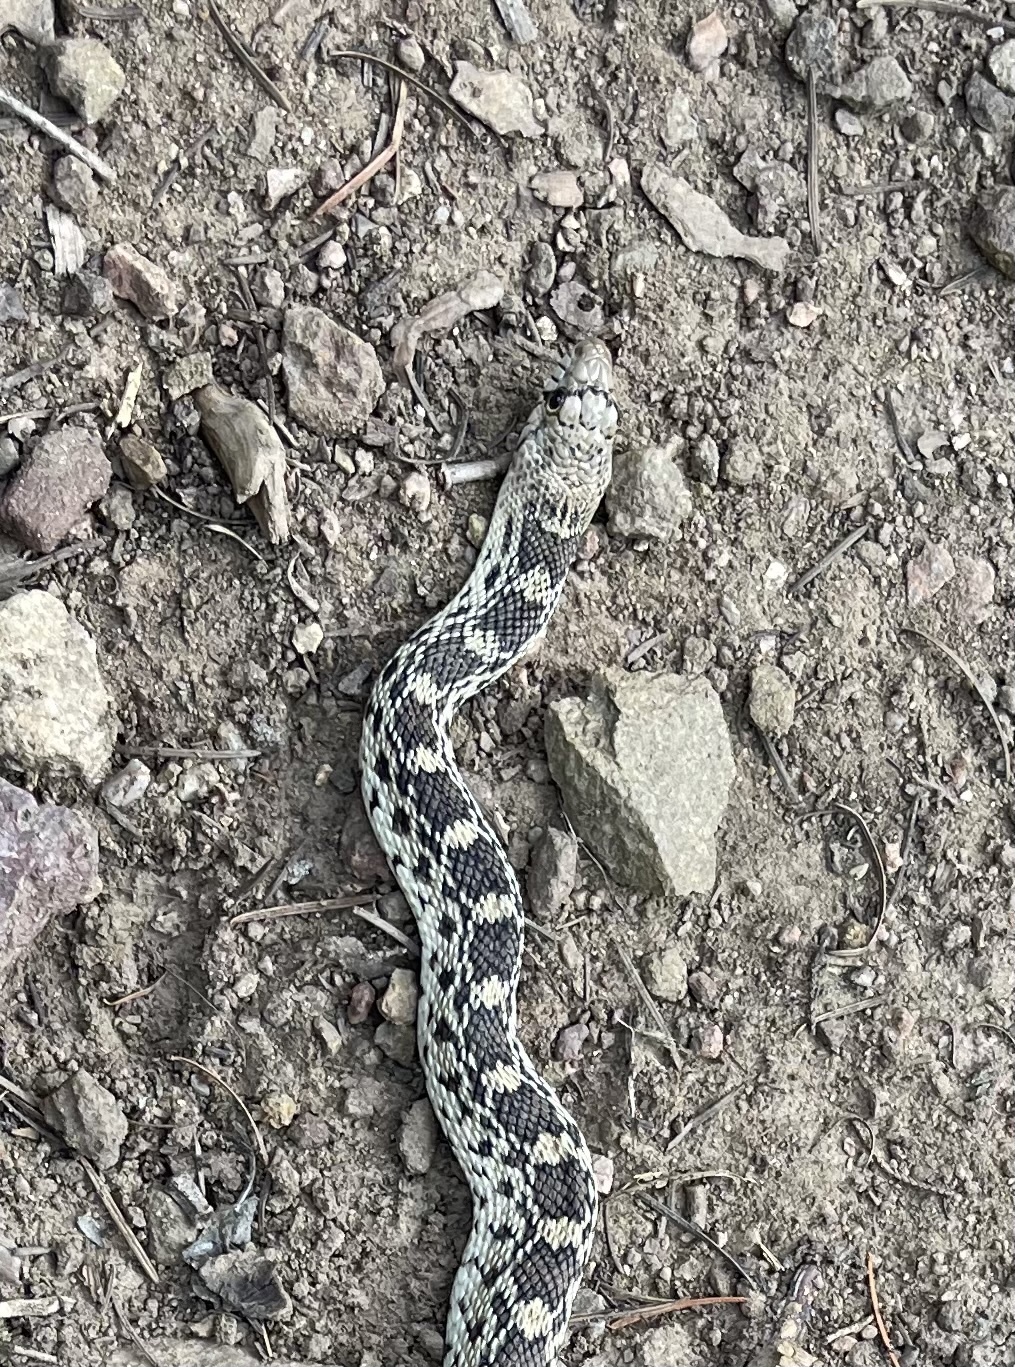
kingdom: Animalia
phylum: Chordata
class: Squamata
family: Colubridae
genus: Pituophis
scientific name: Pituophis catenifer
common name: Gopher snake
